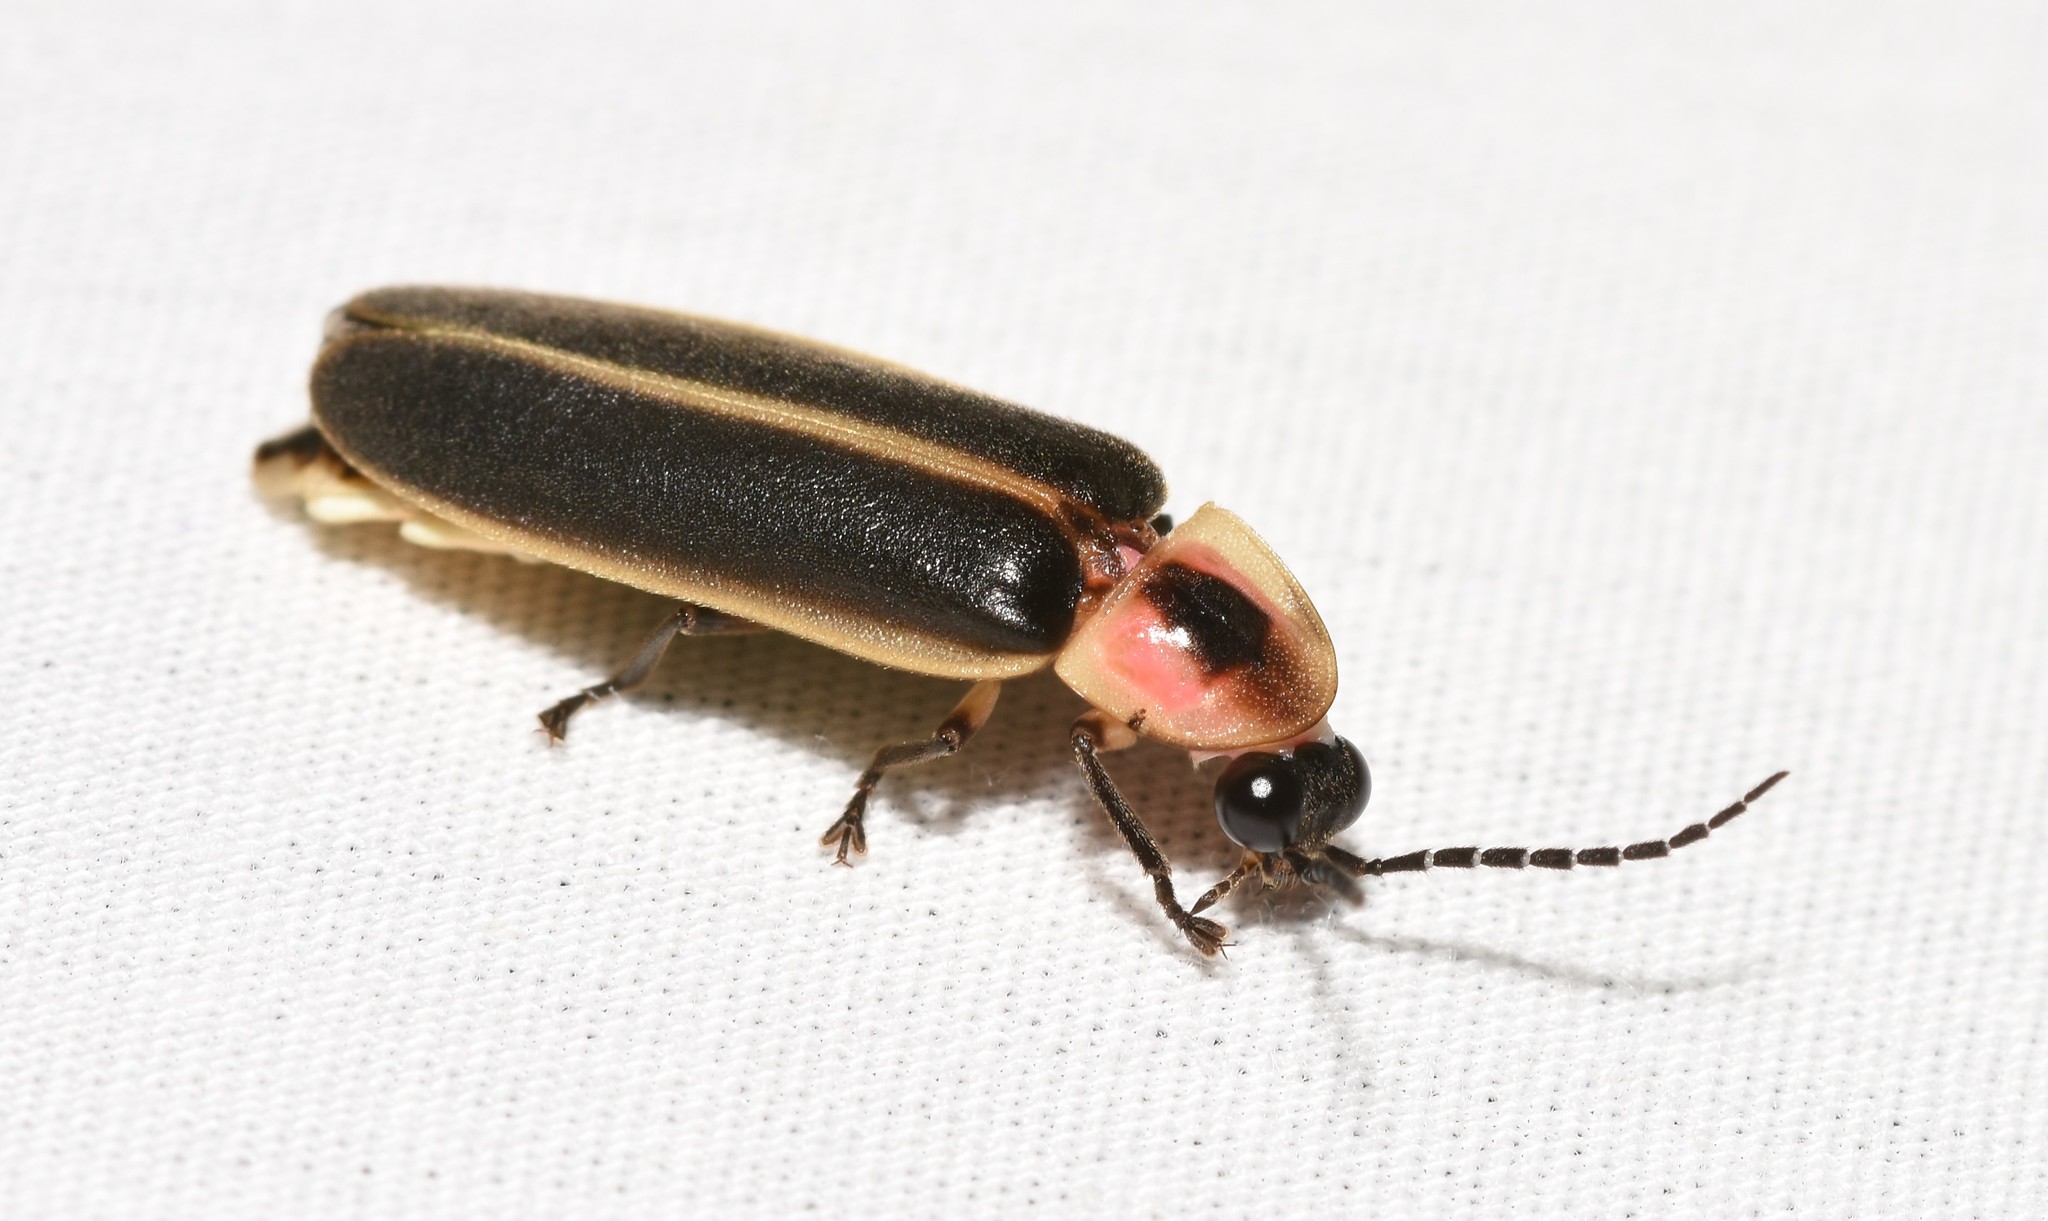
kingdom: Animalia
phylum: Arthropoda
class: Insecta
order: Coleoptera
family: Lampyridae
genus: Photinus
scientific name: Photinus pyralis
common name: Big dipper firefly
